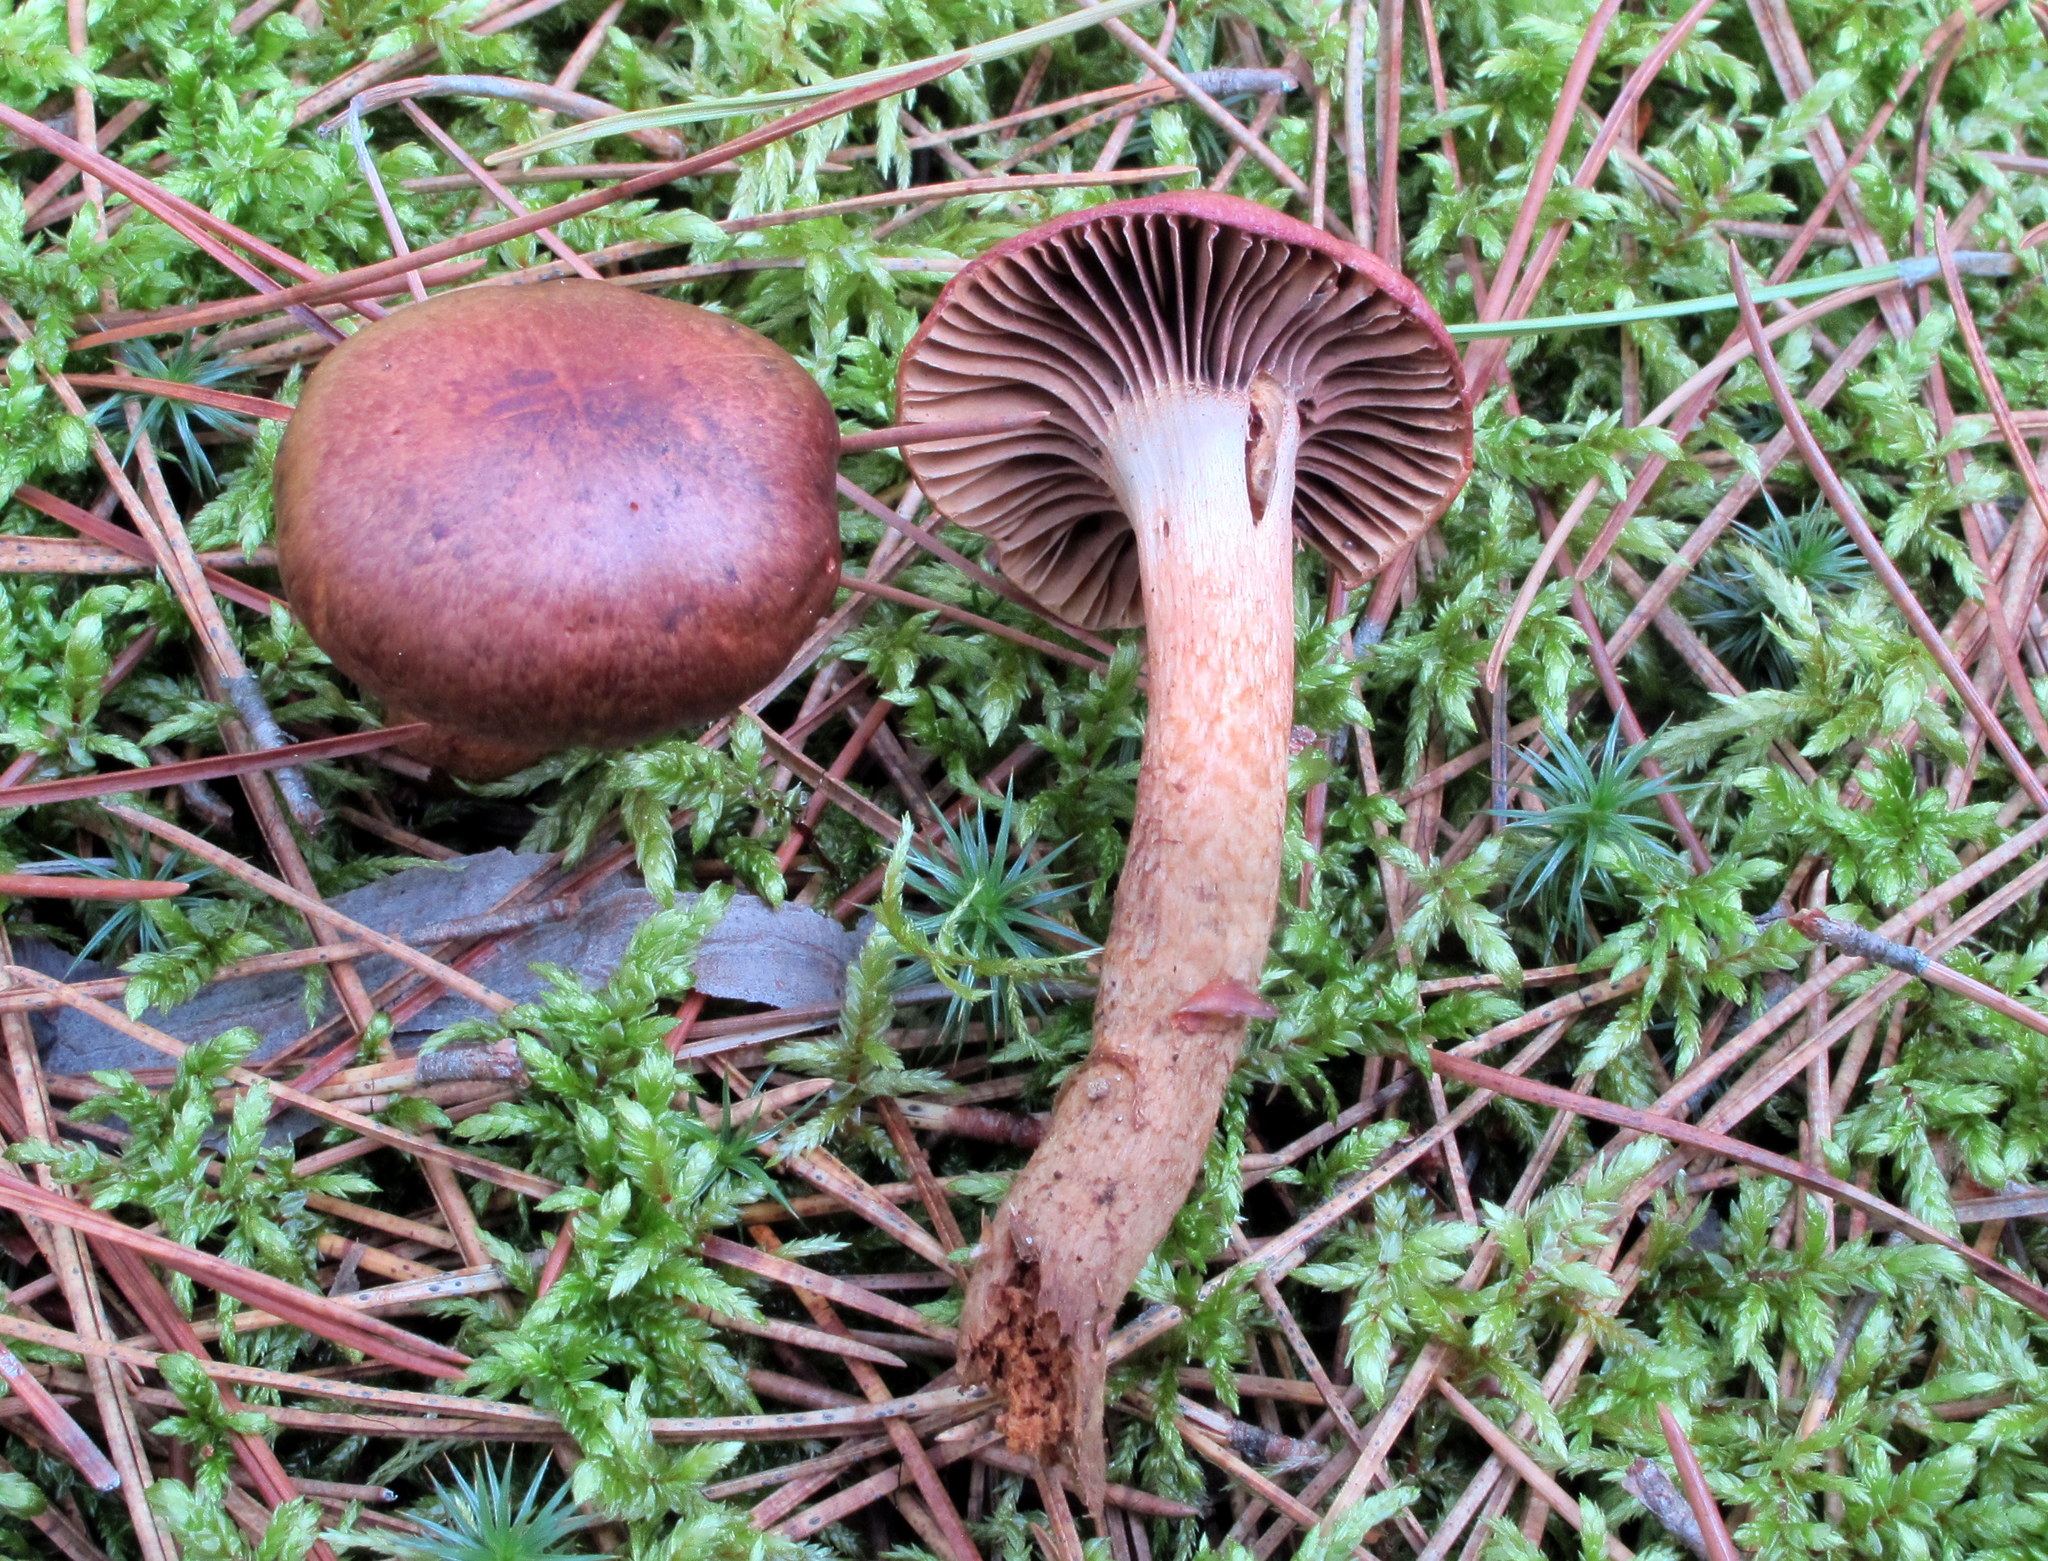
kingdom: Fungi
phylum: Basidiomycota
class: Agaricomycetes
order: Boletales
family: Gomphidiaceae
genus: Chroogomphus
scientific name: Chroogomphus vinicolor
